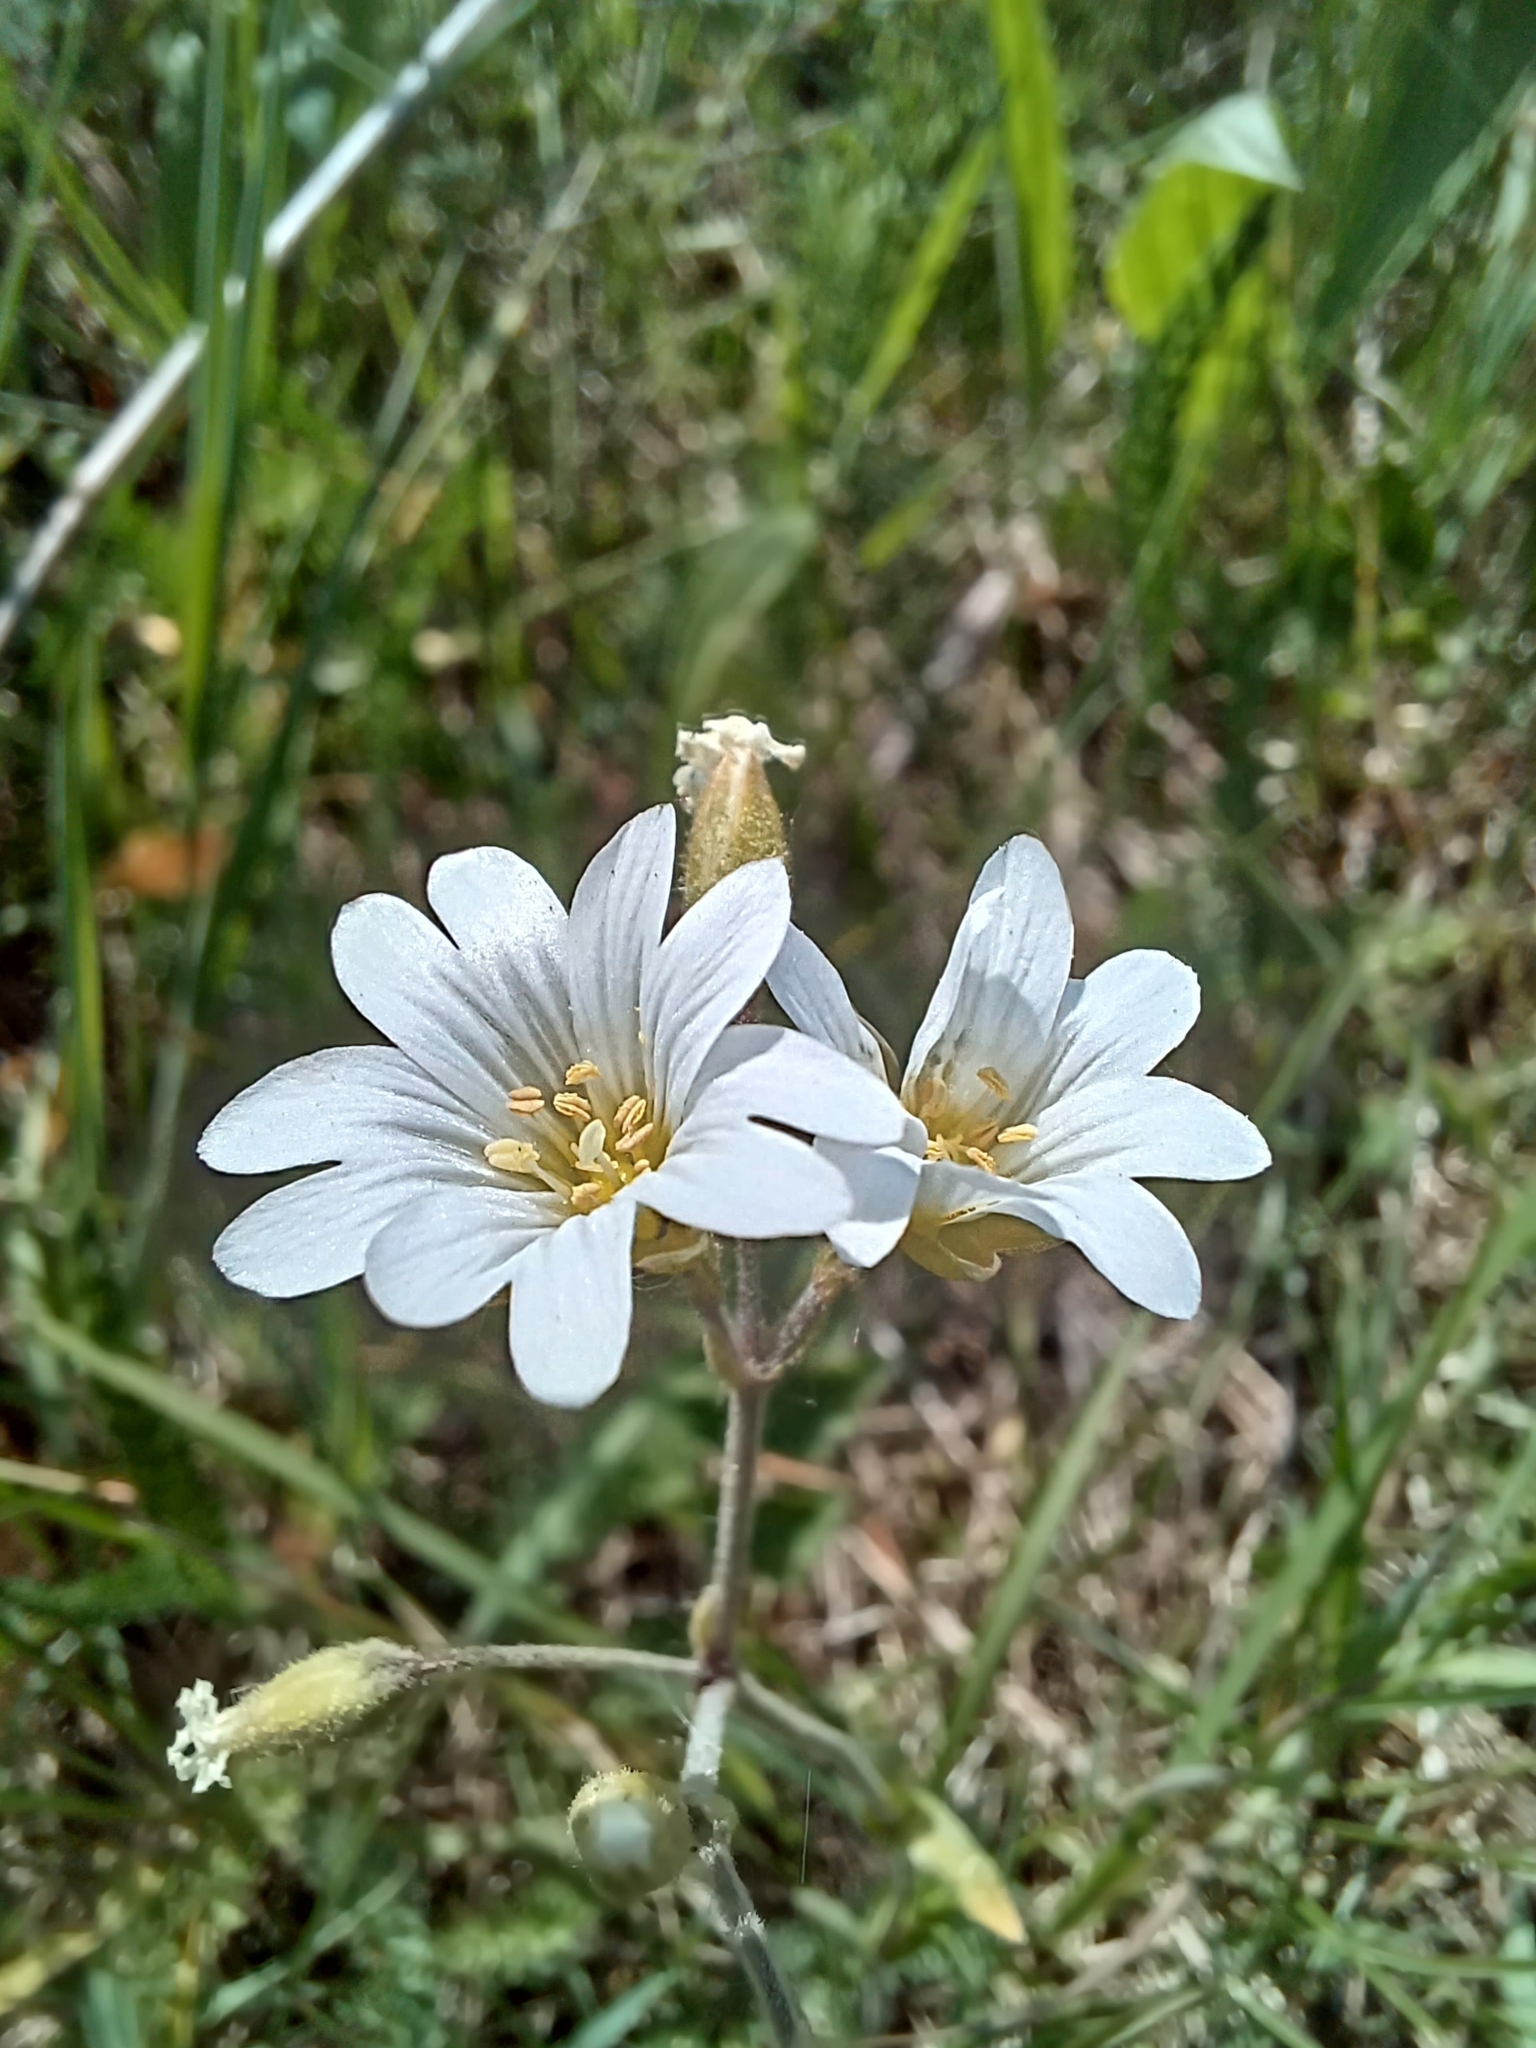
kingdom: Plantae
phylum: Tracheophyta
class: Magnoliopsida
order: Caryophyllales
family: Caryophyllaceae
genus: Cerastium
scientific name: Cerastium arvense
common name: Field mouse-ear
